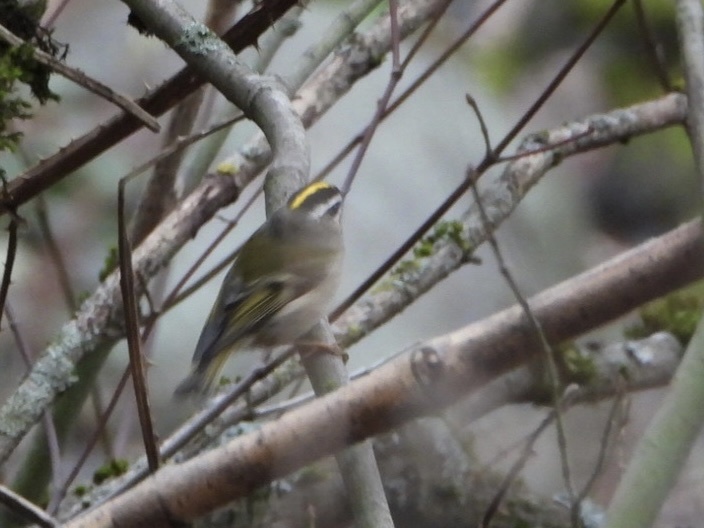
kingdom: Animalia
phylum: Chordata
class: Aves
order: Passeriformes
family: Regulidae
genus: Regulus
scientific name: Regulus satrapa
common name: Golden-crowned kinglet
